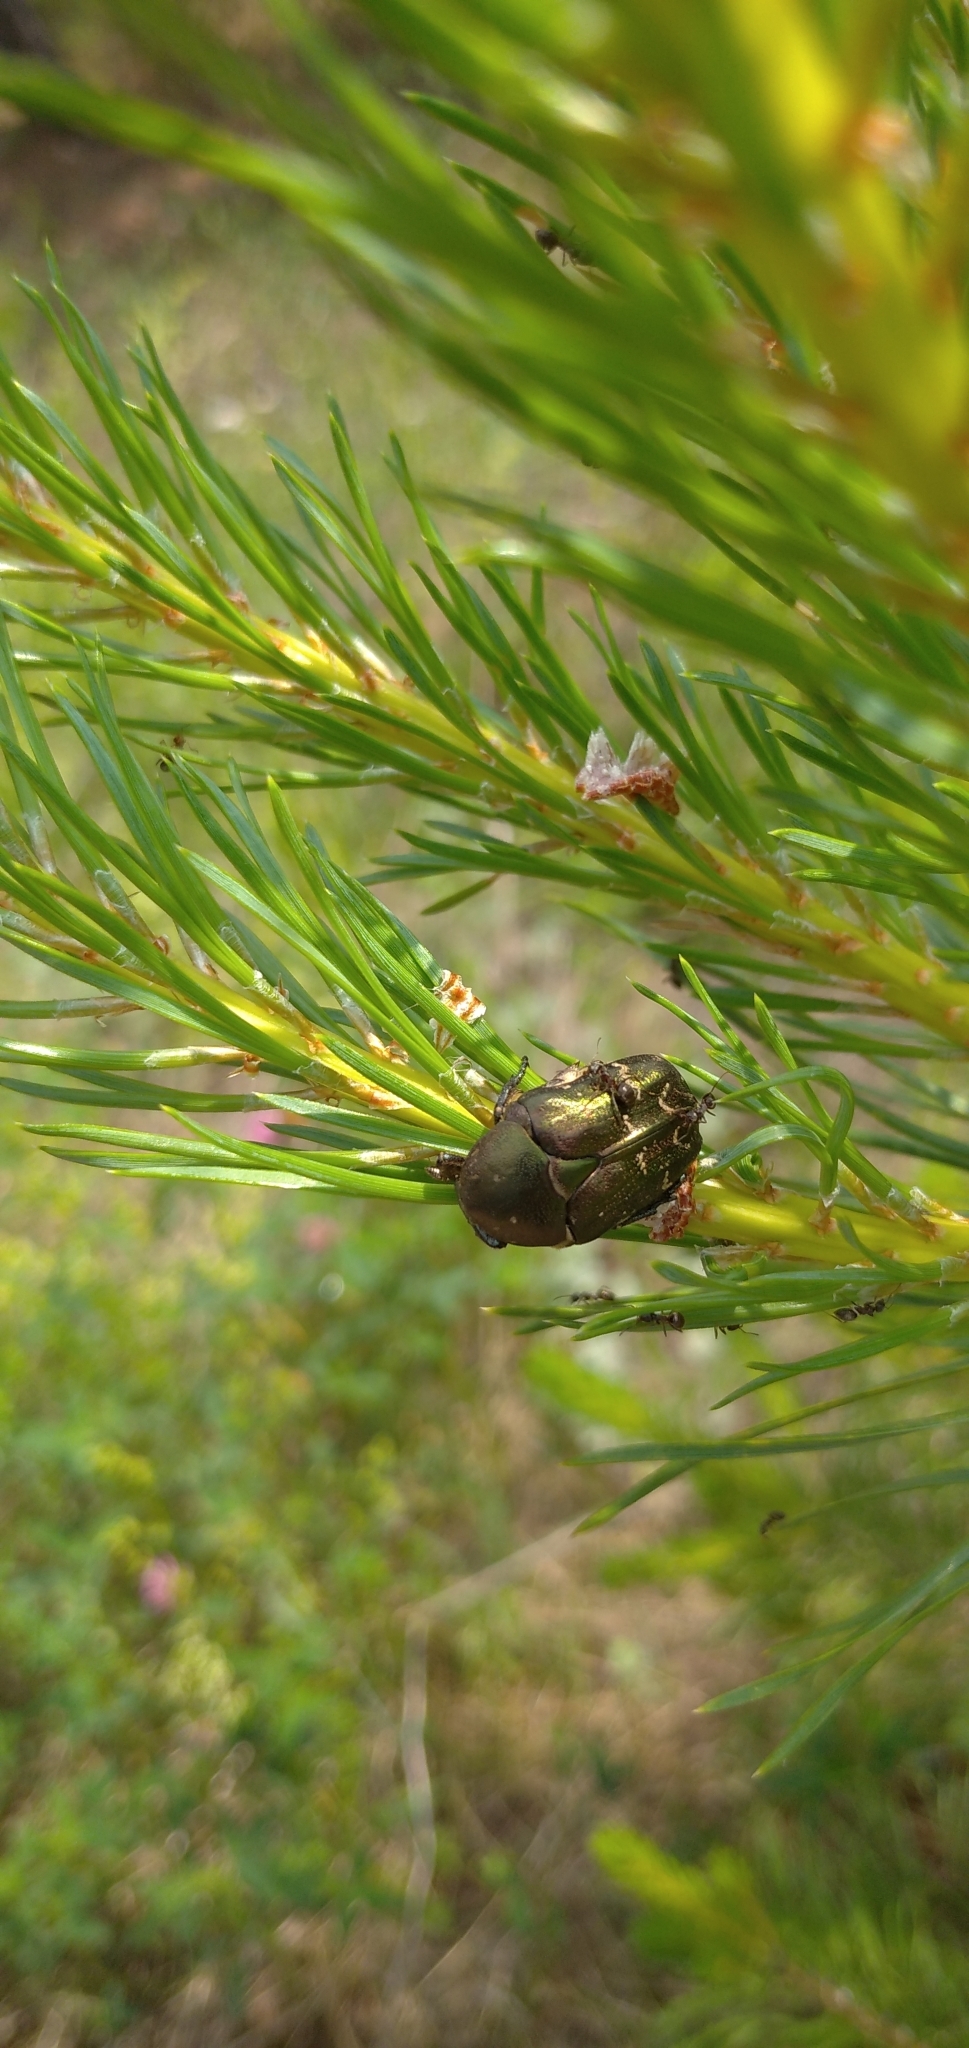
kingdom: Animalia
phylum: Arthropoda
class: Insecta
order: Coleoptera
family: Scarabaeidae
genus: Protaetia
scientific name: Protaetia cuprea
